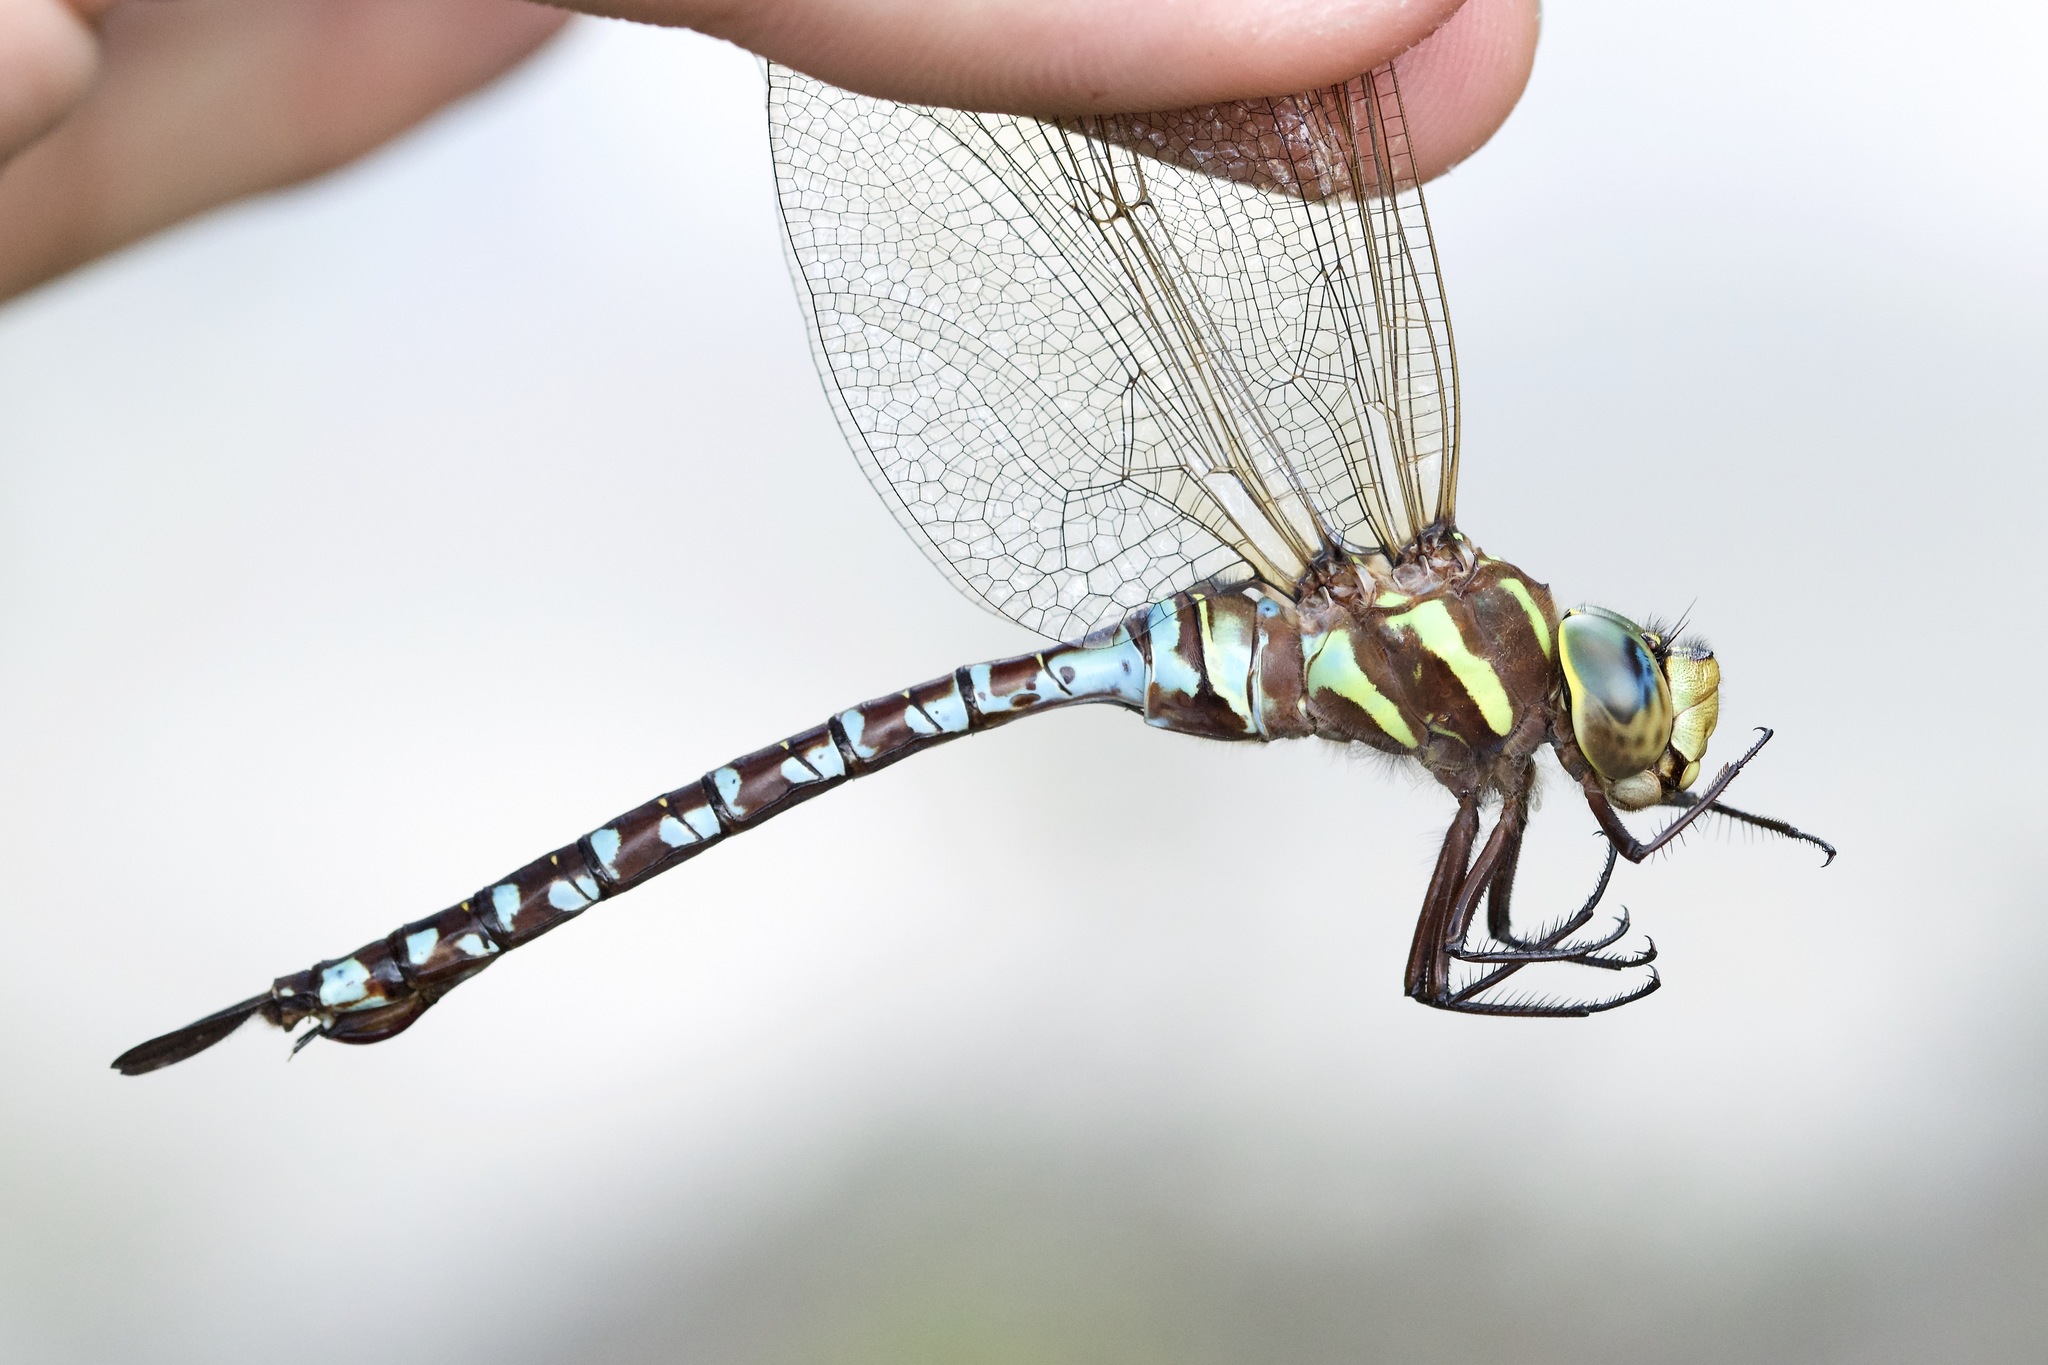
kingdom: Animalia
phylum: Arthropoda
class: Insecta
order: Odonata
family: Aeshnidae
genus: Aeshna
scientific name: Aeshna constricta
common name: Lance-tipped darner
